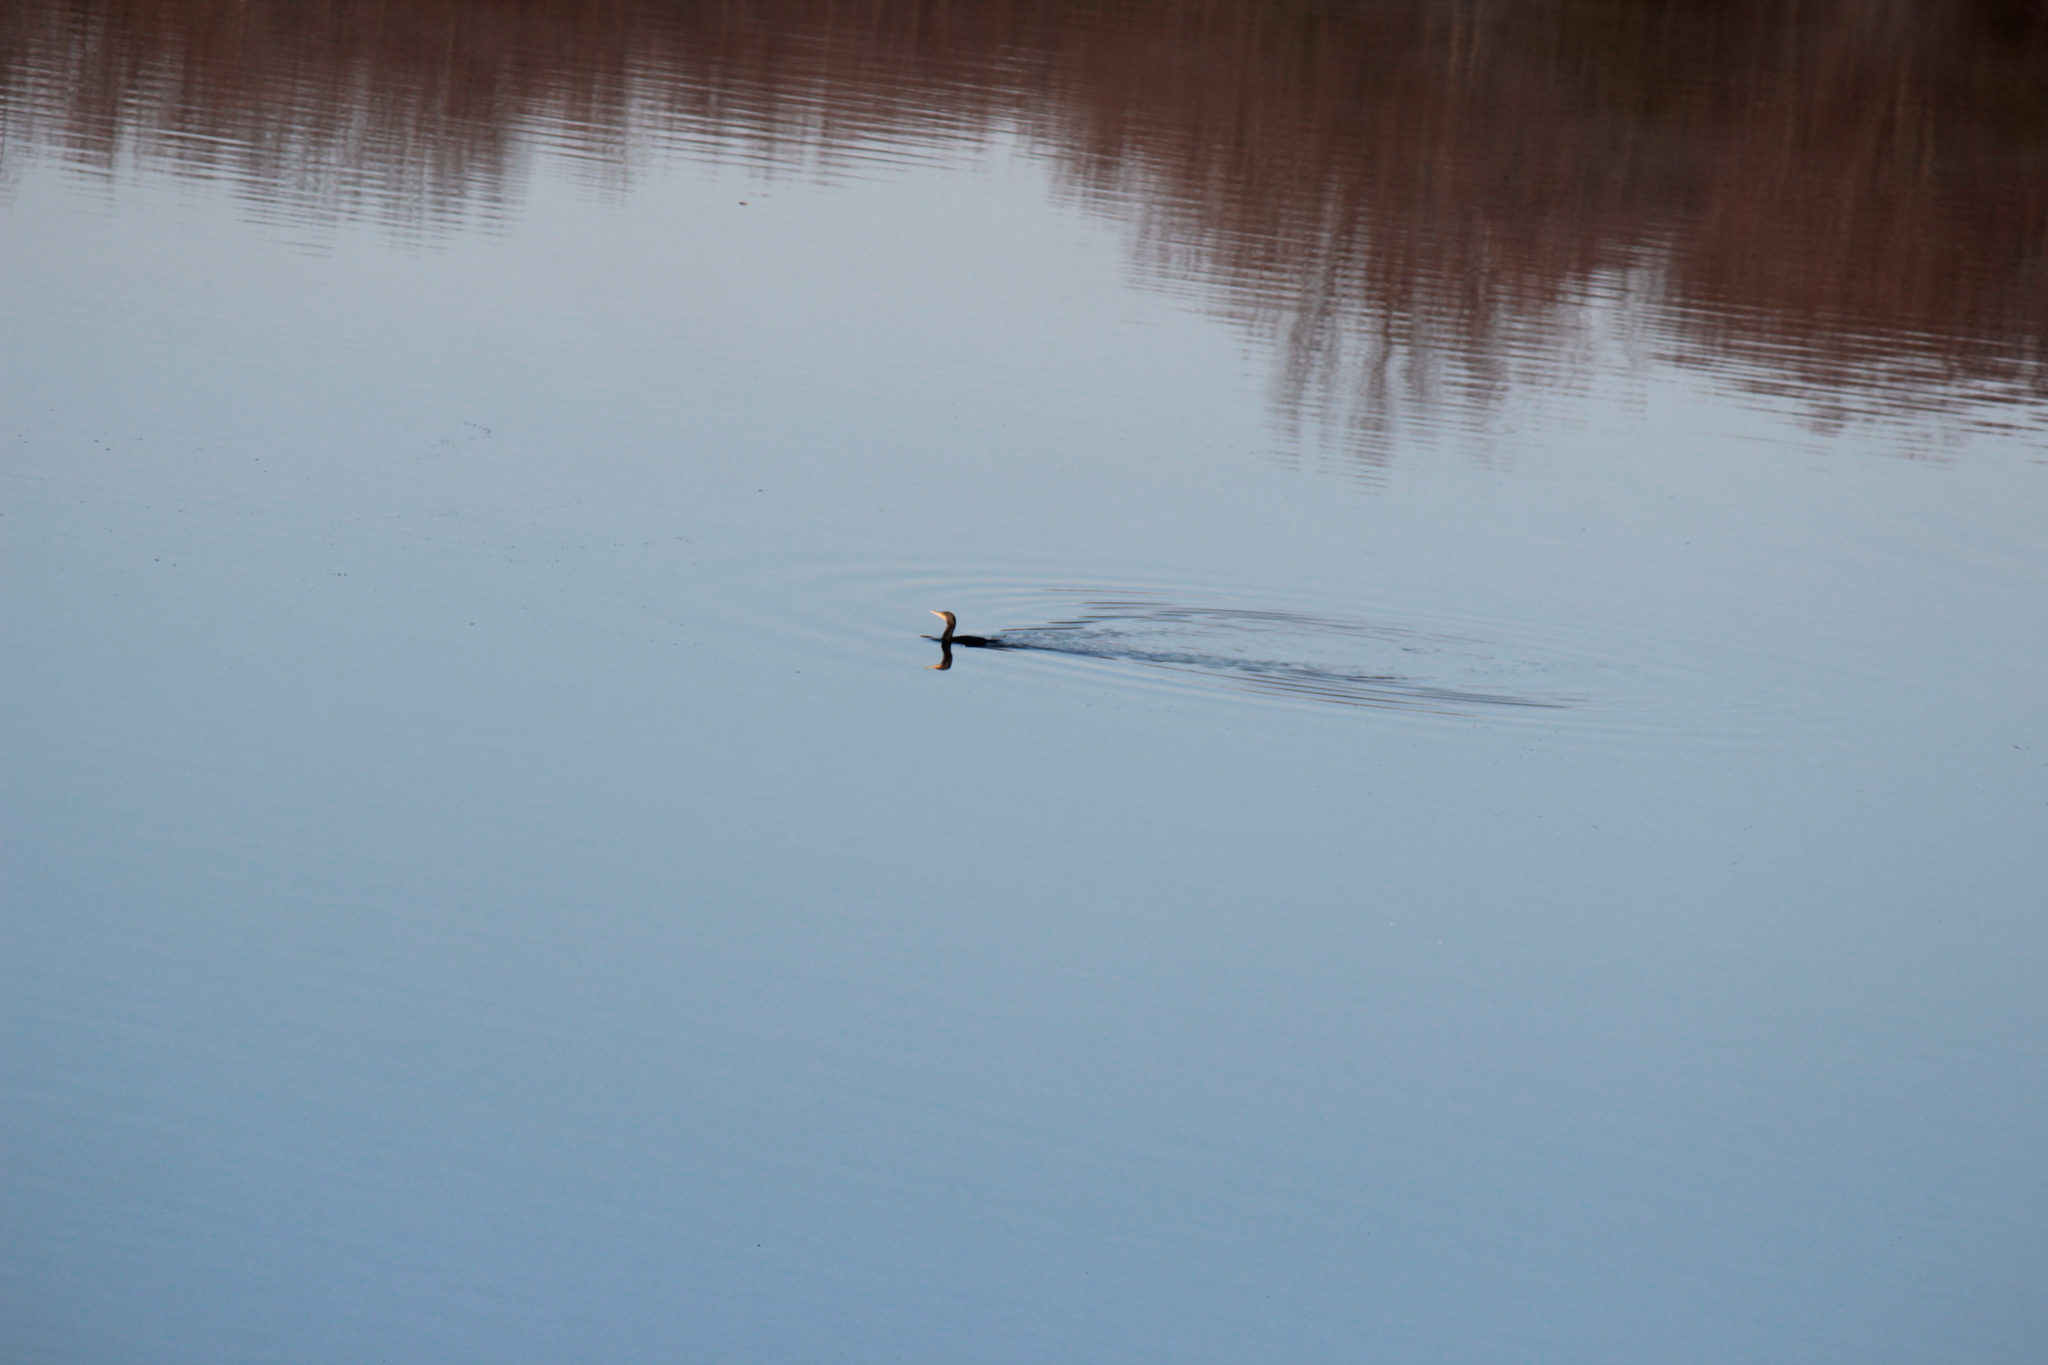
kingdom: Animalia
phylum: Chordata
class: Aves
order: Suliformes
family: Phalacrocoracidae
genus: Phalacrocorax
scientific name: Phalacrocorax auritus
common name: Double-crested cormorant
